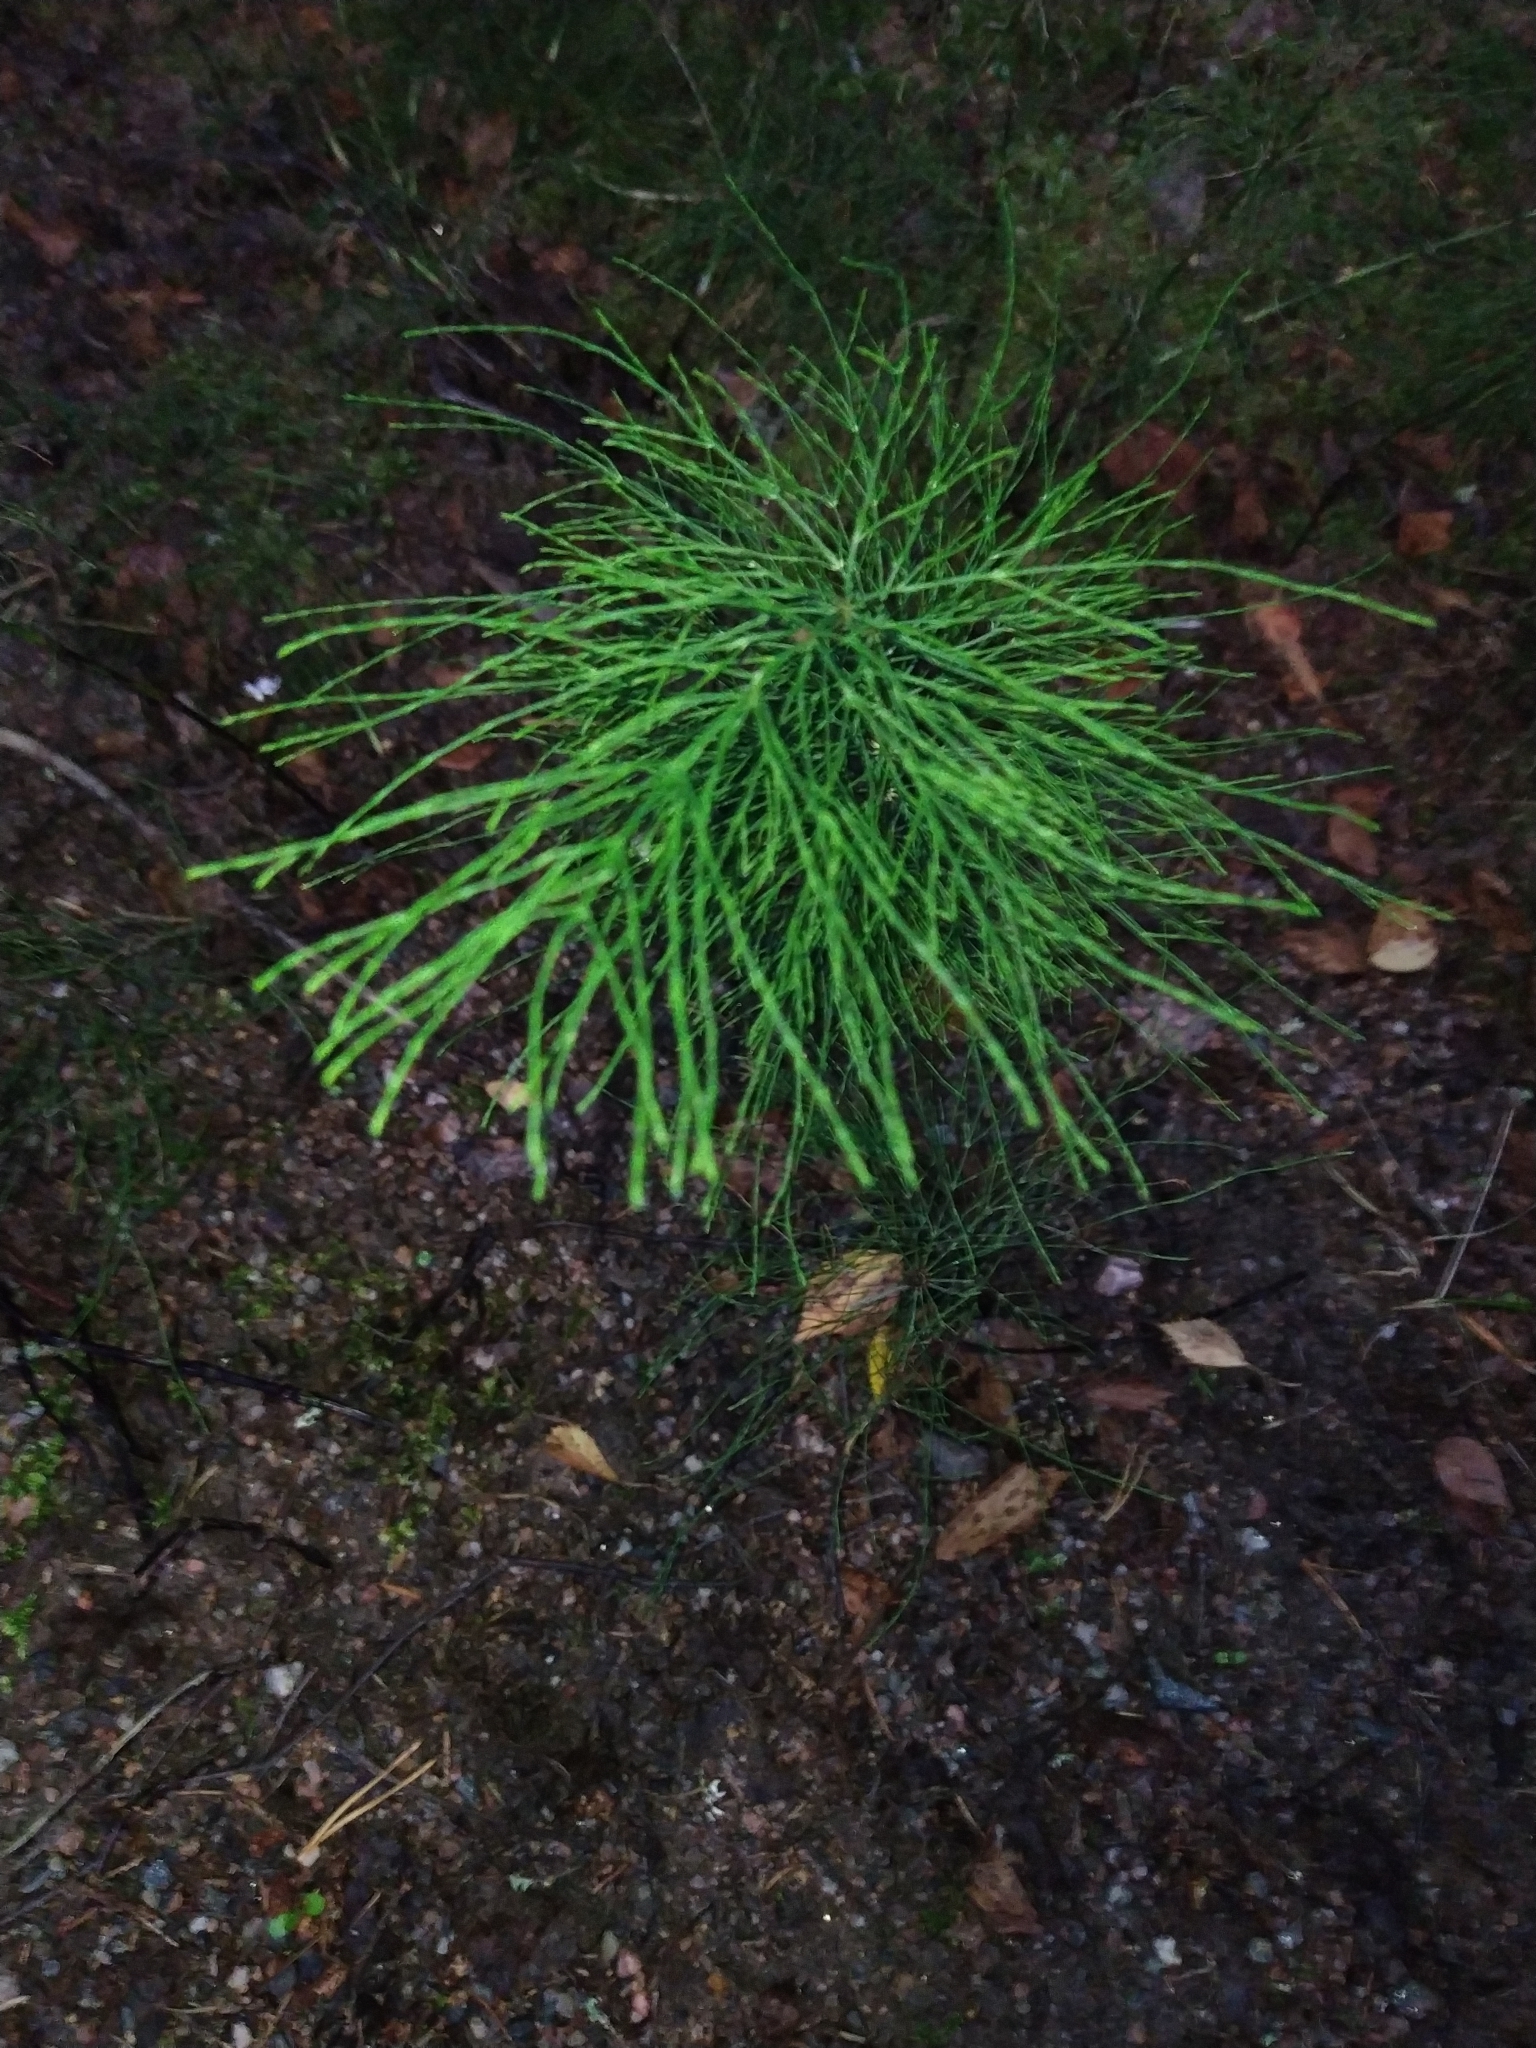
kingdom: Plantae
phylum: Tracheophyta
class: Polypodiopsida
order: Equisetales
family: Equisetaceae
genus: Equisetum
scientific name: Equisetum sylvaticum
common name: Wood horsetail
